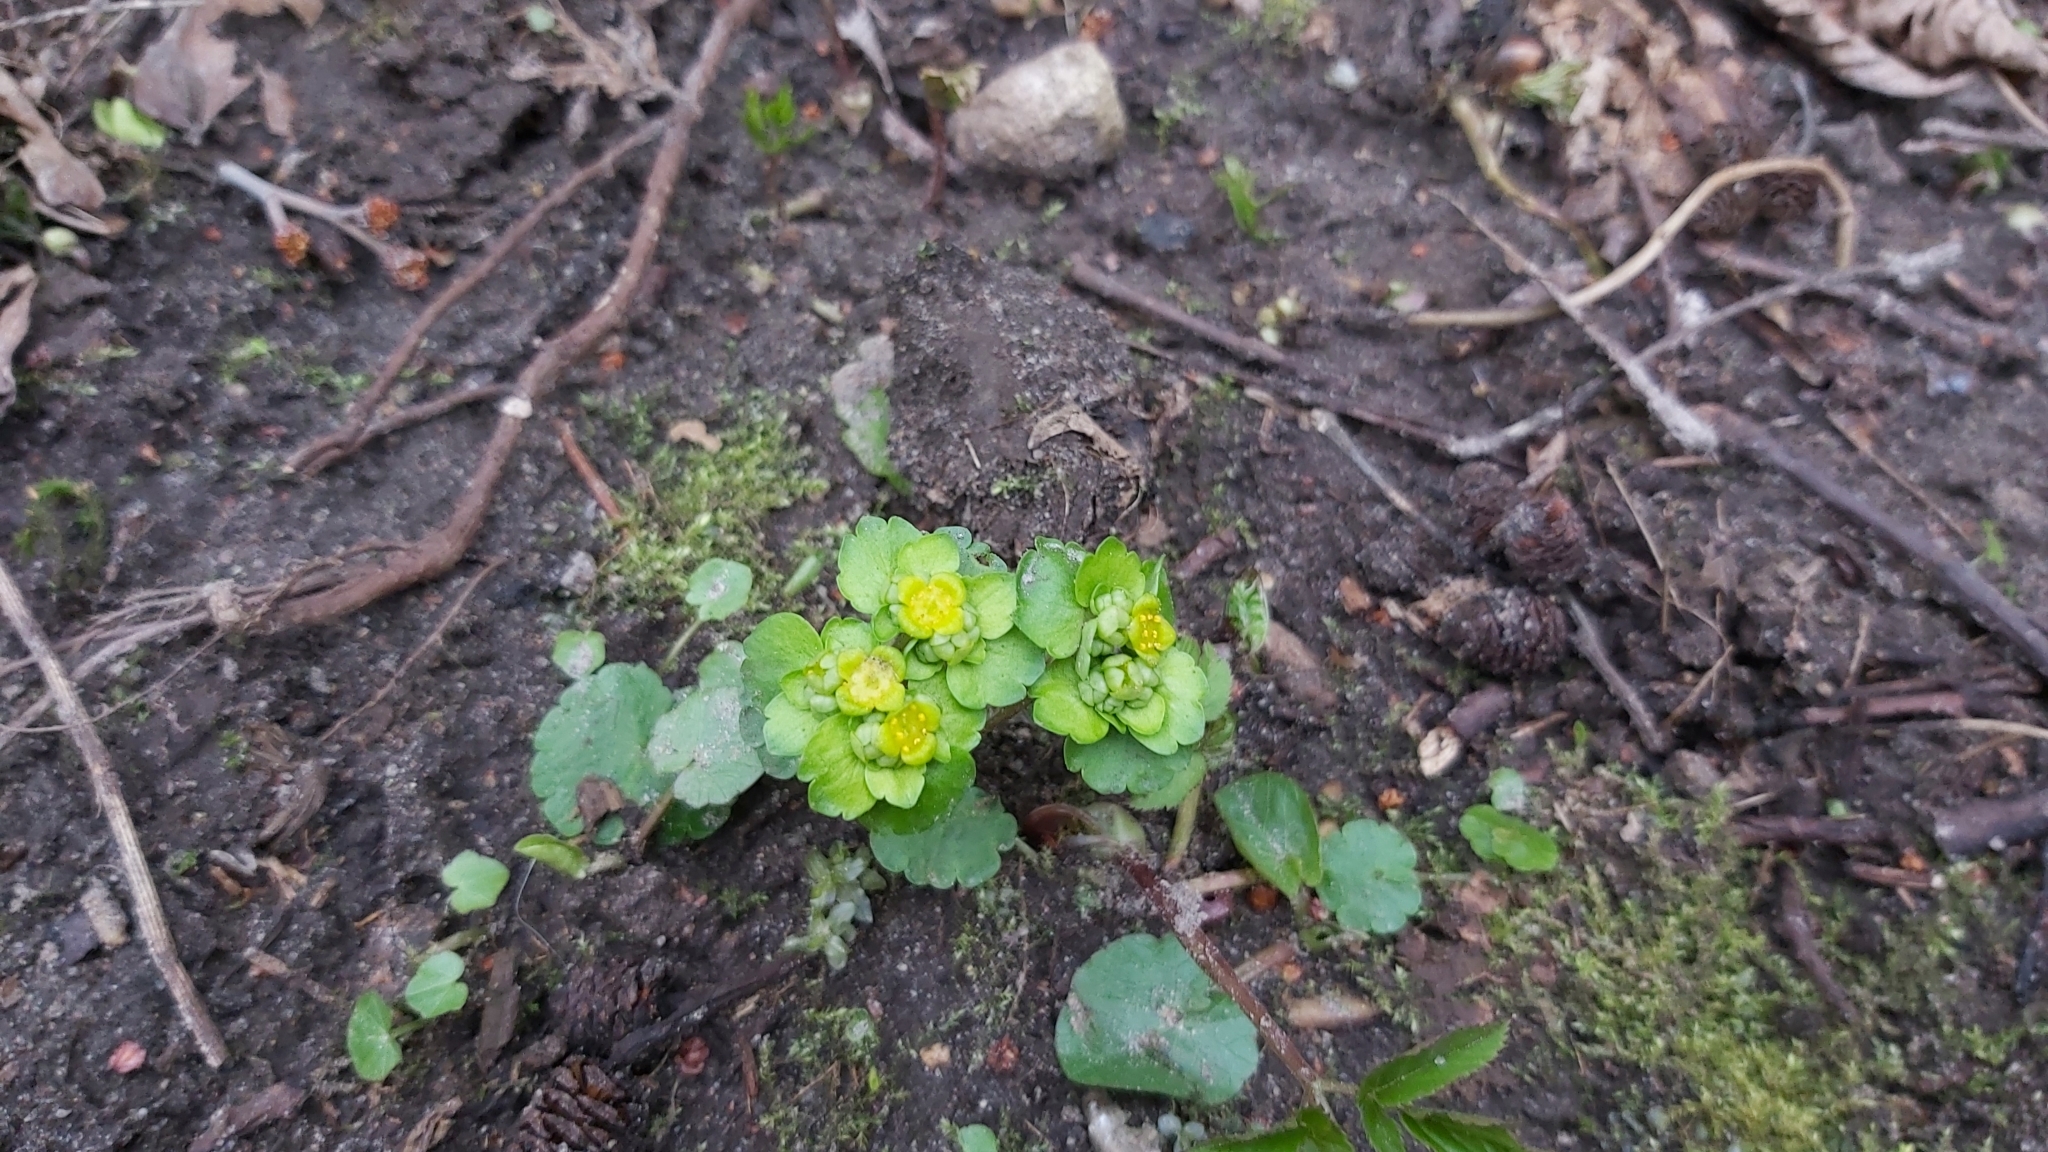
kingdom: Plantae
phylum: Tracheophyta
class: Magnoliopsida
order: Saxifragales
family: Saxifragaceae
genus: Chrysosplenium
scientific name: Chrysosplenium alternifolium
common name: Alternate-leaved golden-saxifrage
